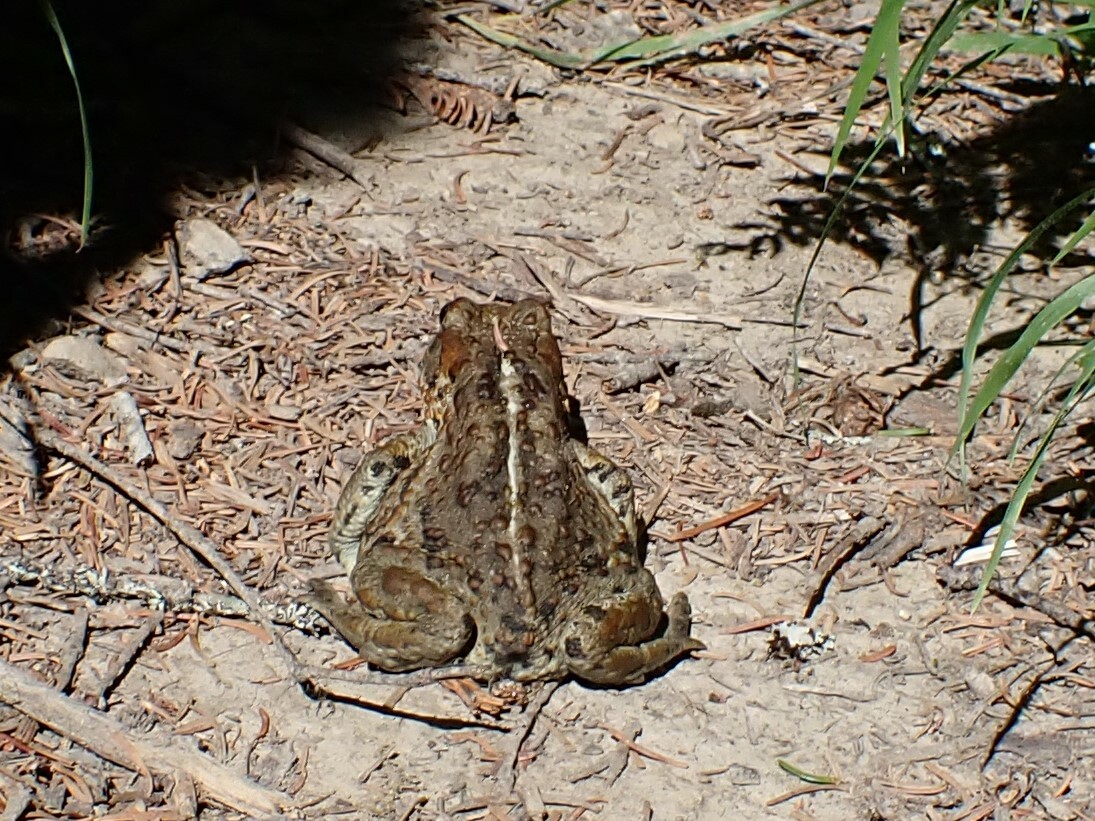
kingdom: Animalia
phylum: Chordata
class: Amphibia
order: Anura
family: Bufonidae
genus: Anaxyrus
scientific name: Anaxyrus boreas
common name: Western toad
